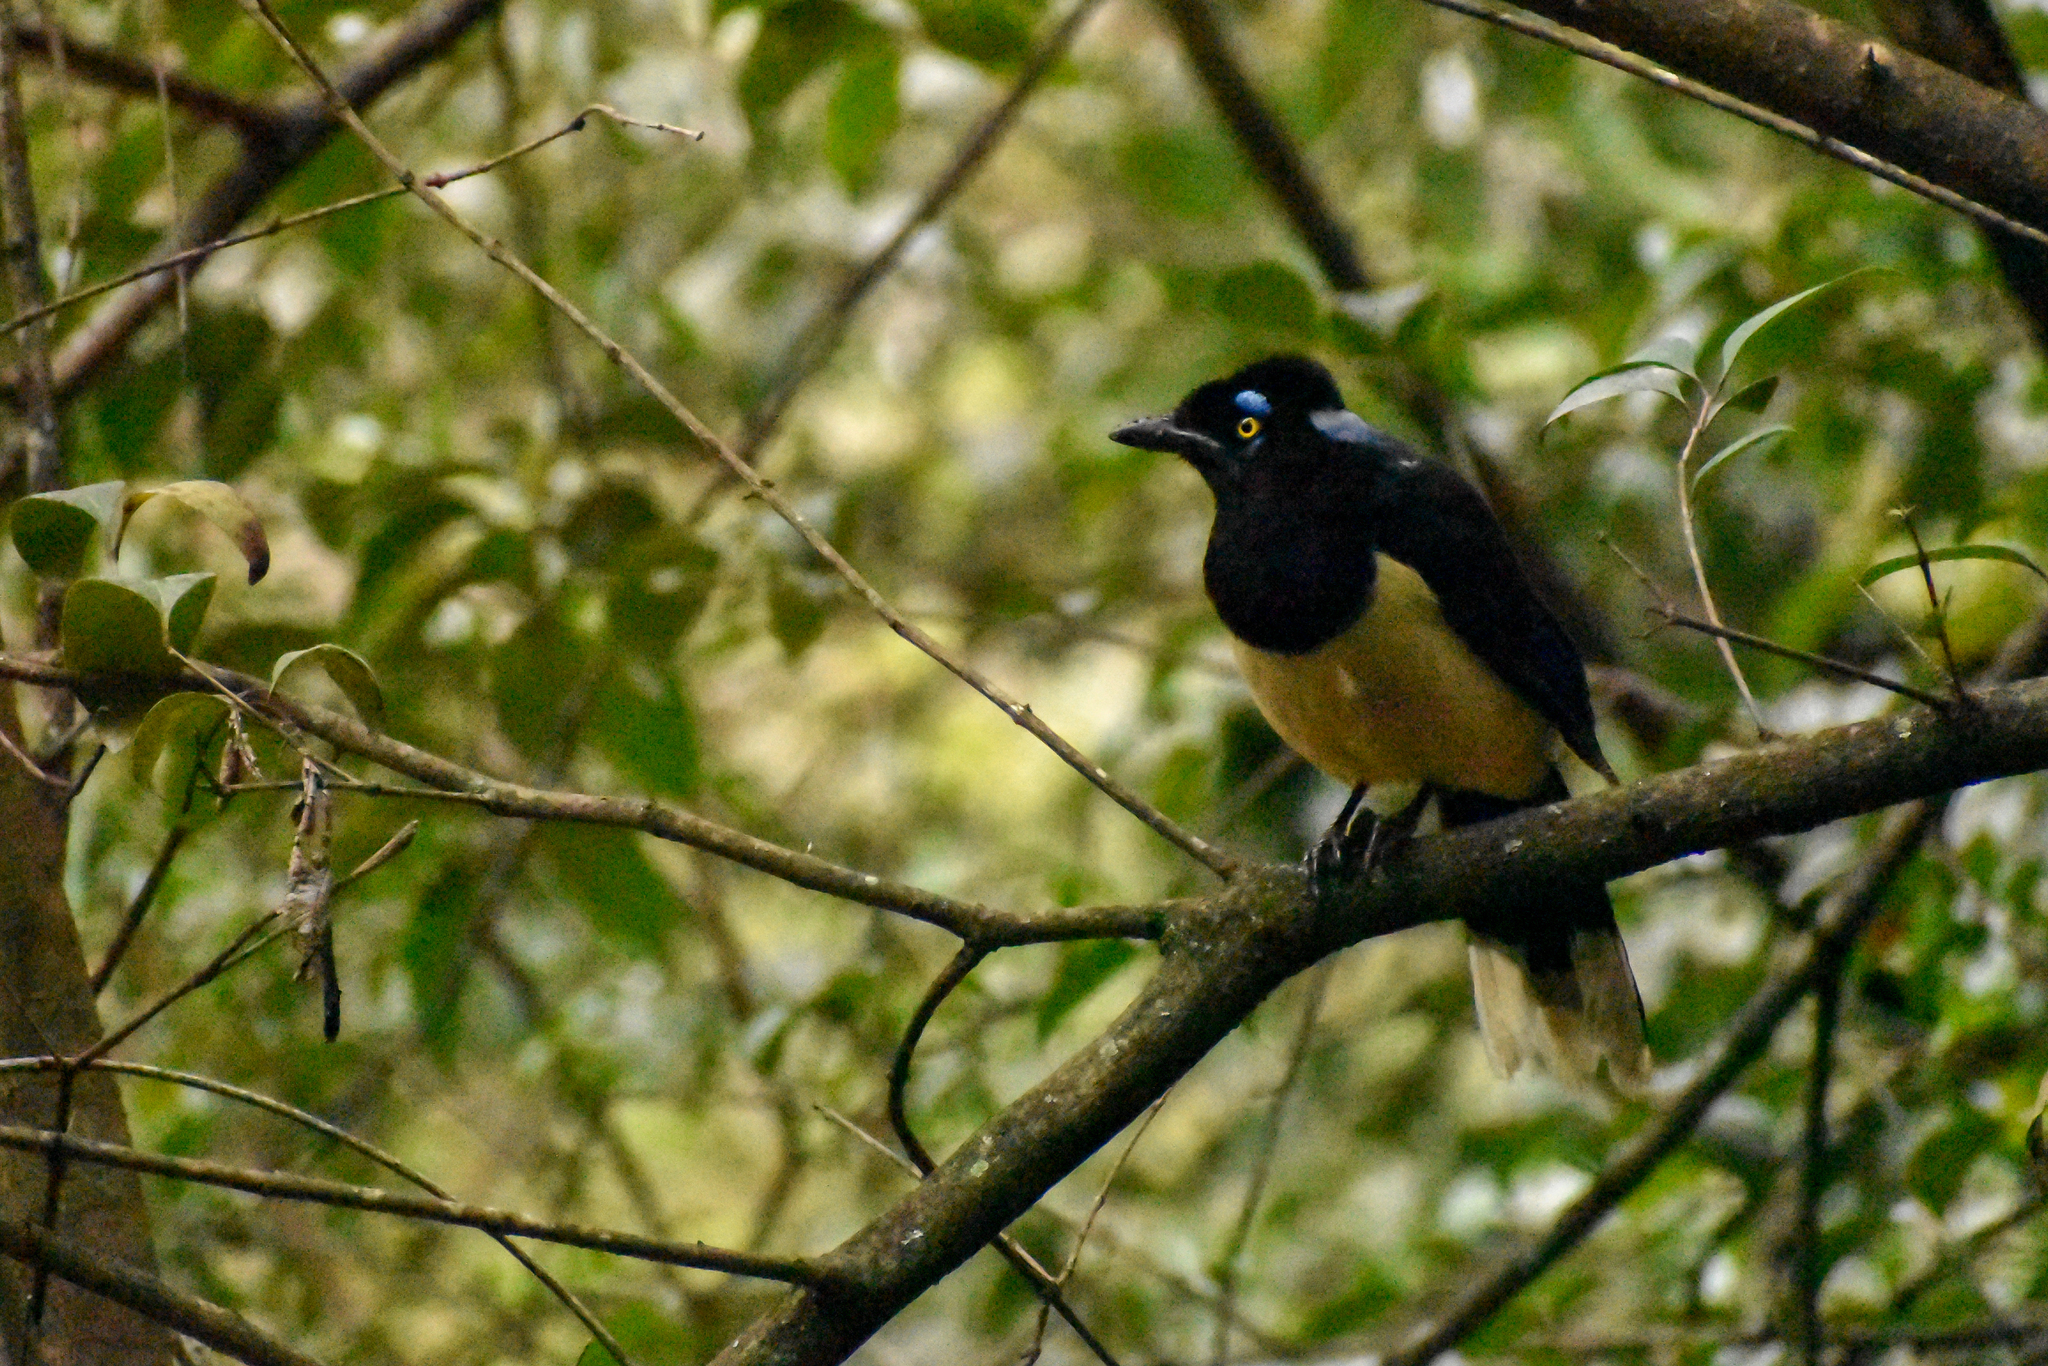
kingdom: Animalia
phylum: Chordata
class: Aves
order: Passeriformes
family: Corvidae
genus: Cyanocorax
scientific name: Cyanocorax chrysops
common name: Plush-crested jay
